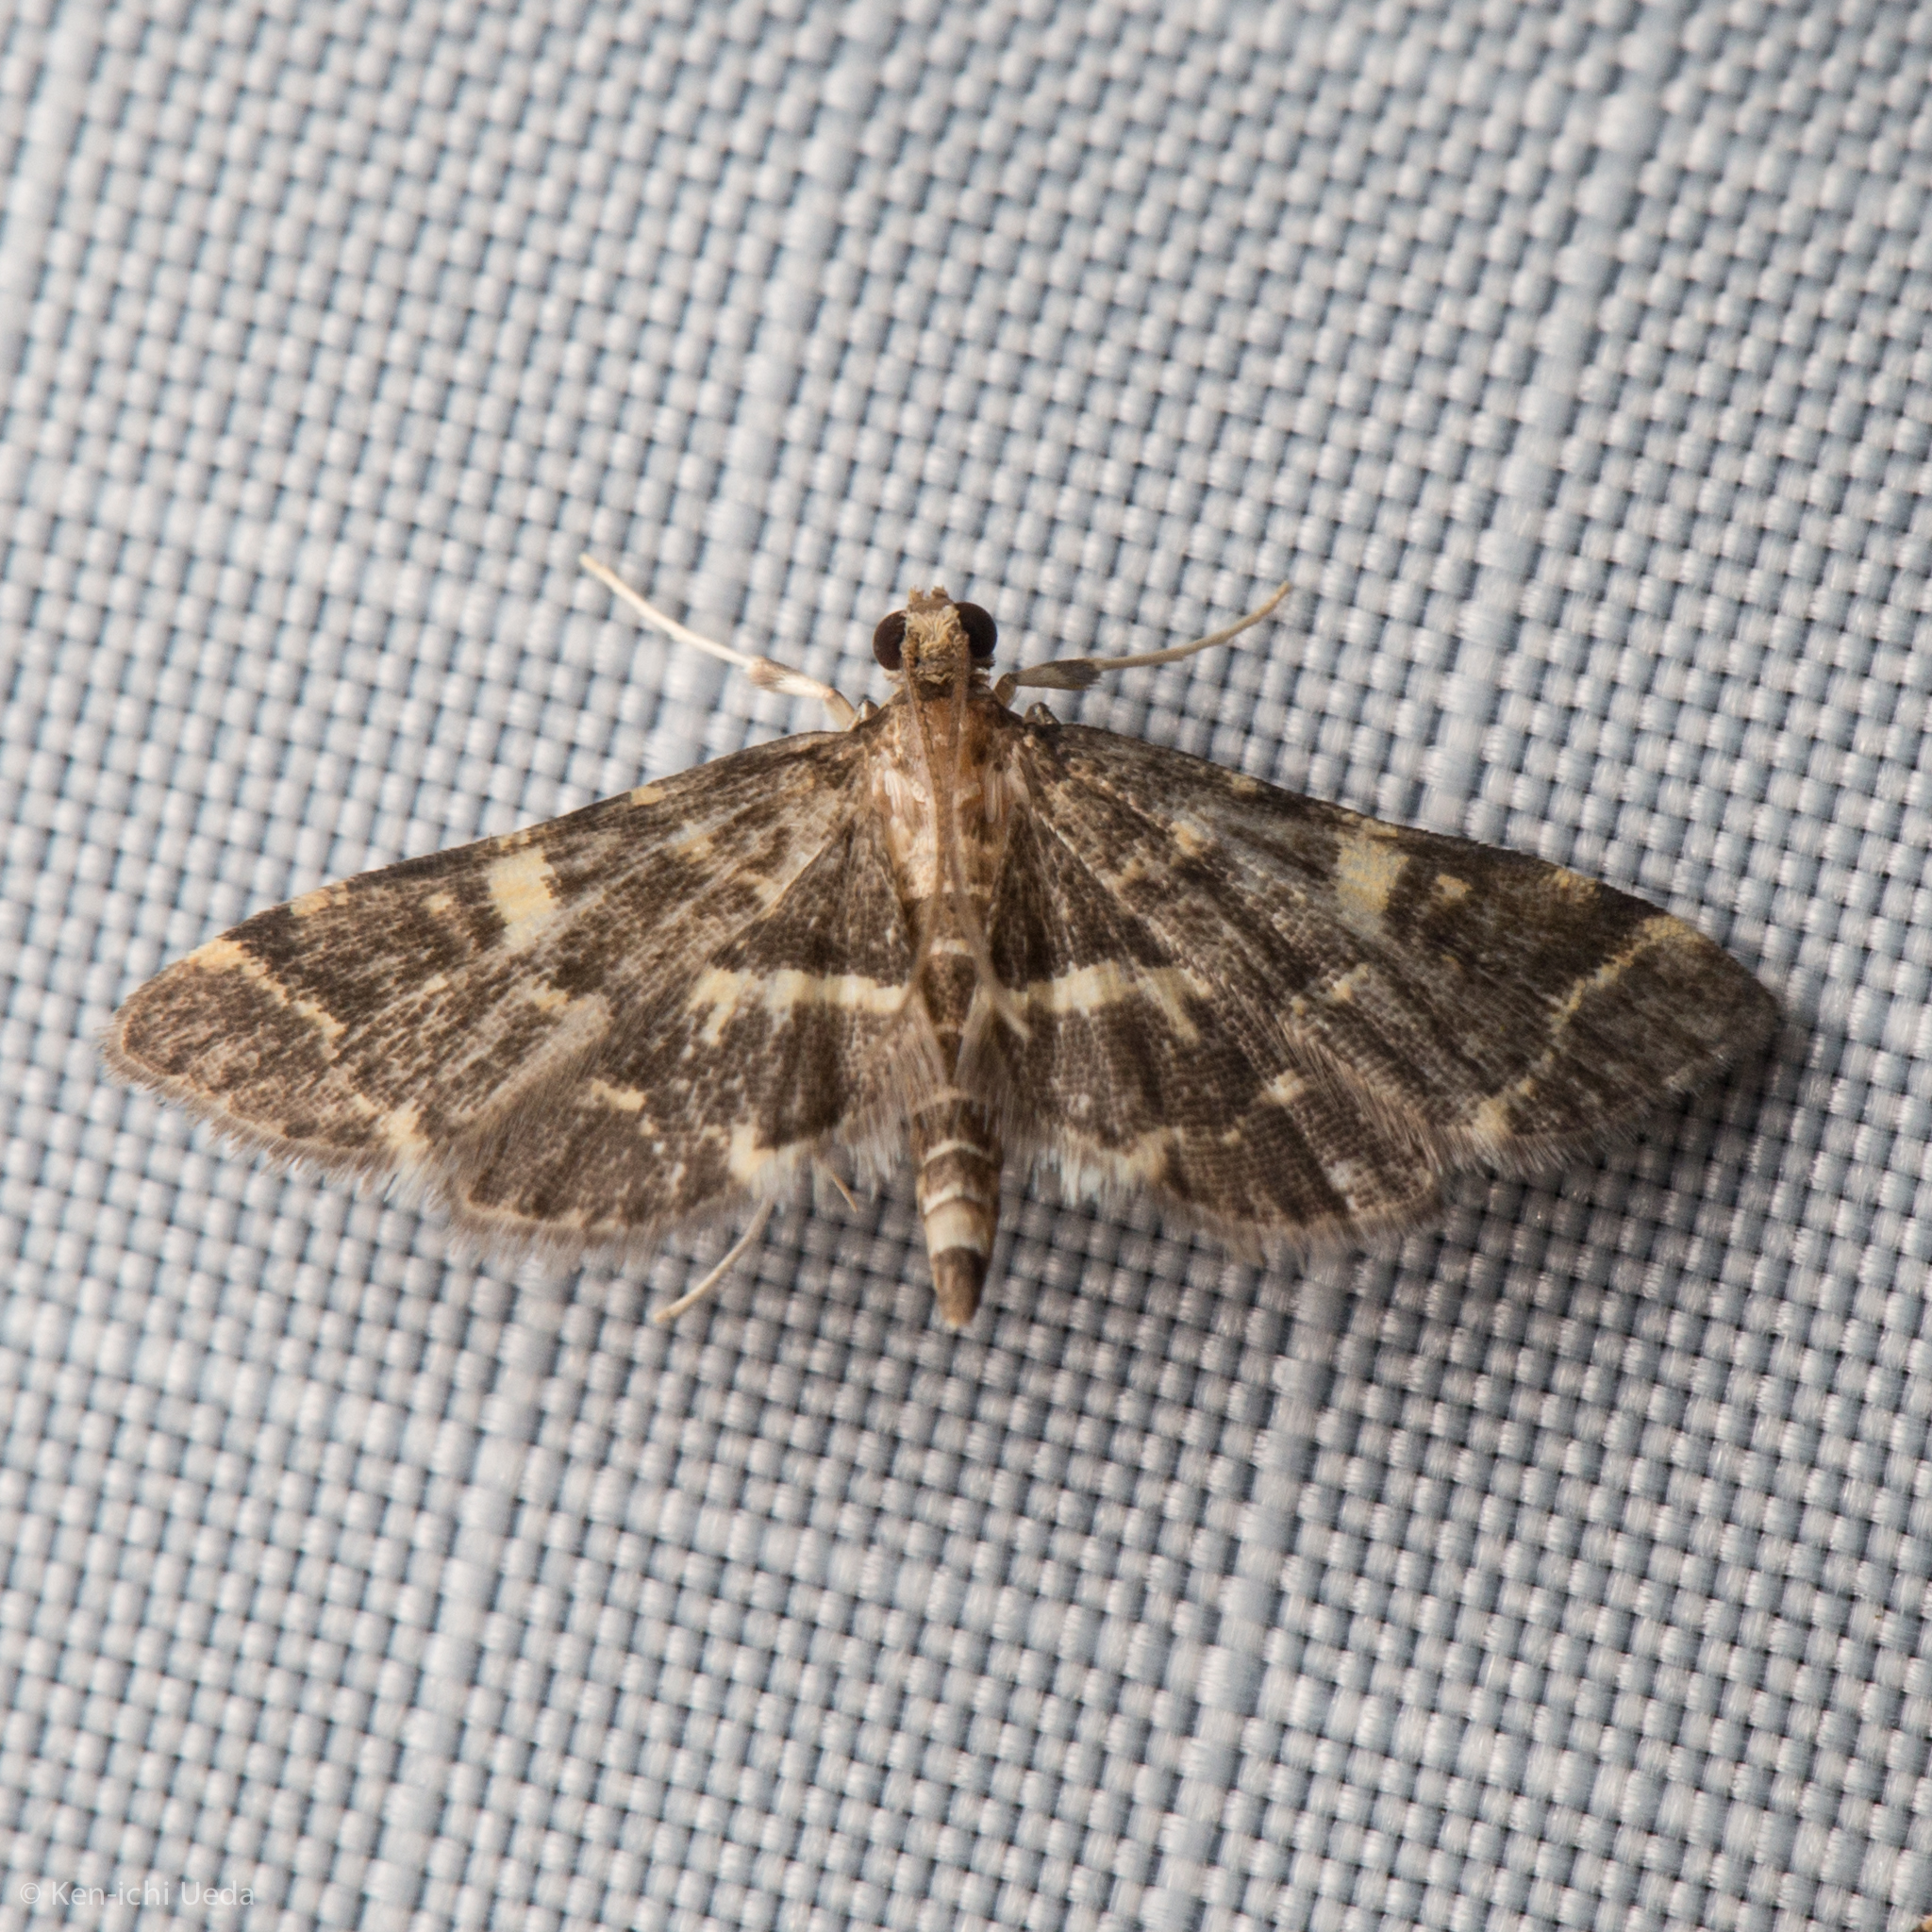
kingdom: Animalia
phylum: Arthropoda
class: Insecta
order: Lepidoptera
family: Crambidae
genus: Anageshna
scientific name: Anageshna primordialis
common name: Yellow-spotted webworm moth
